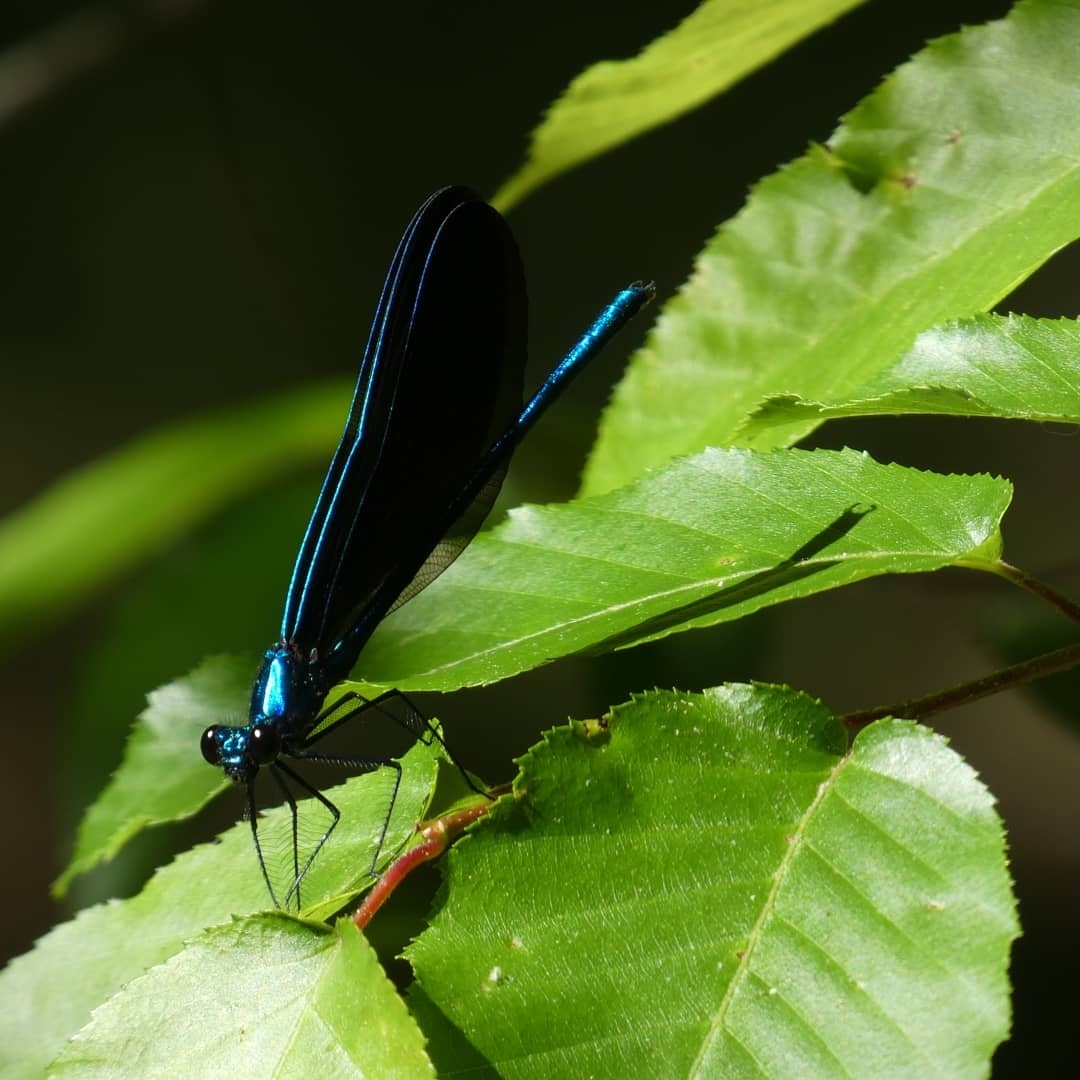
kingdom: Animalia
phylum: Arthropoda
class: Insecta
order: Odonata
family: Calopterygidae
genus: Calopteryx
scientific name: Calopteryx maculata
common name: Ebony jewelwing
